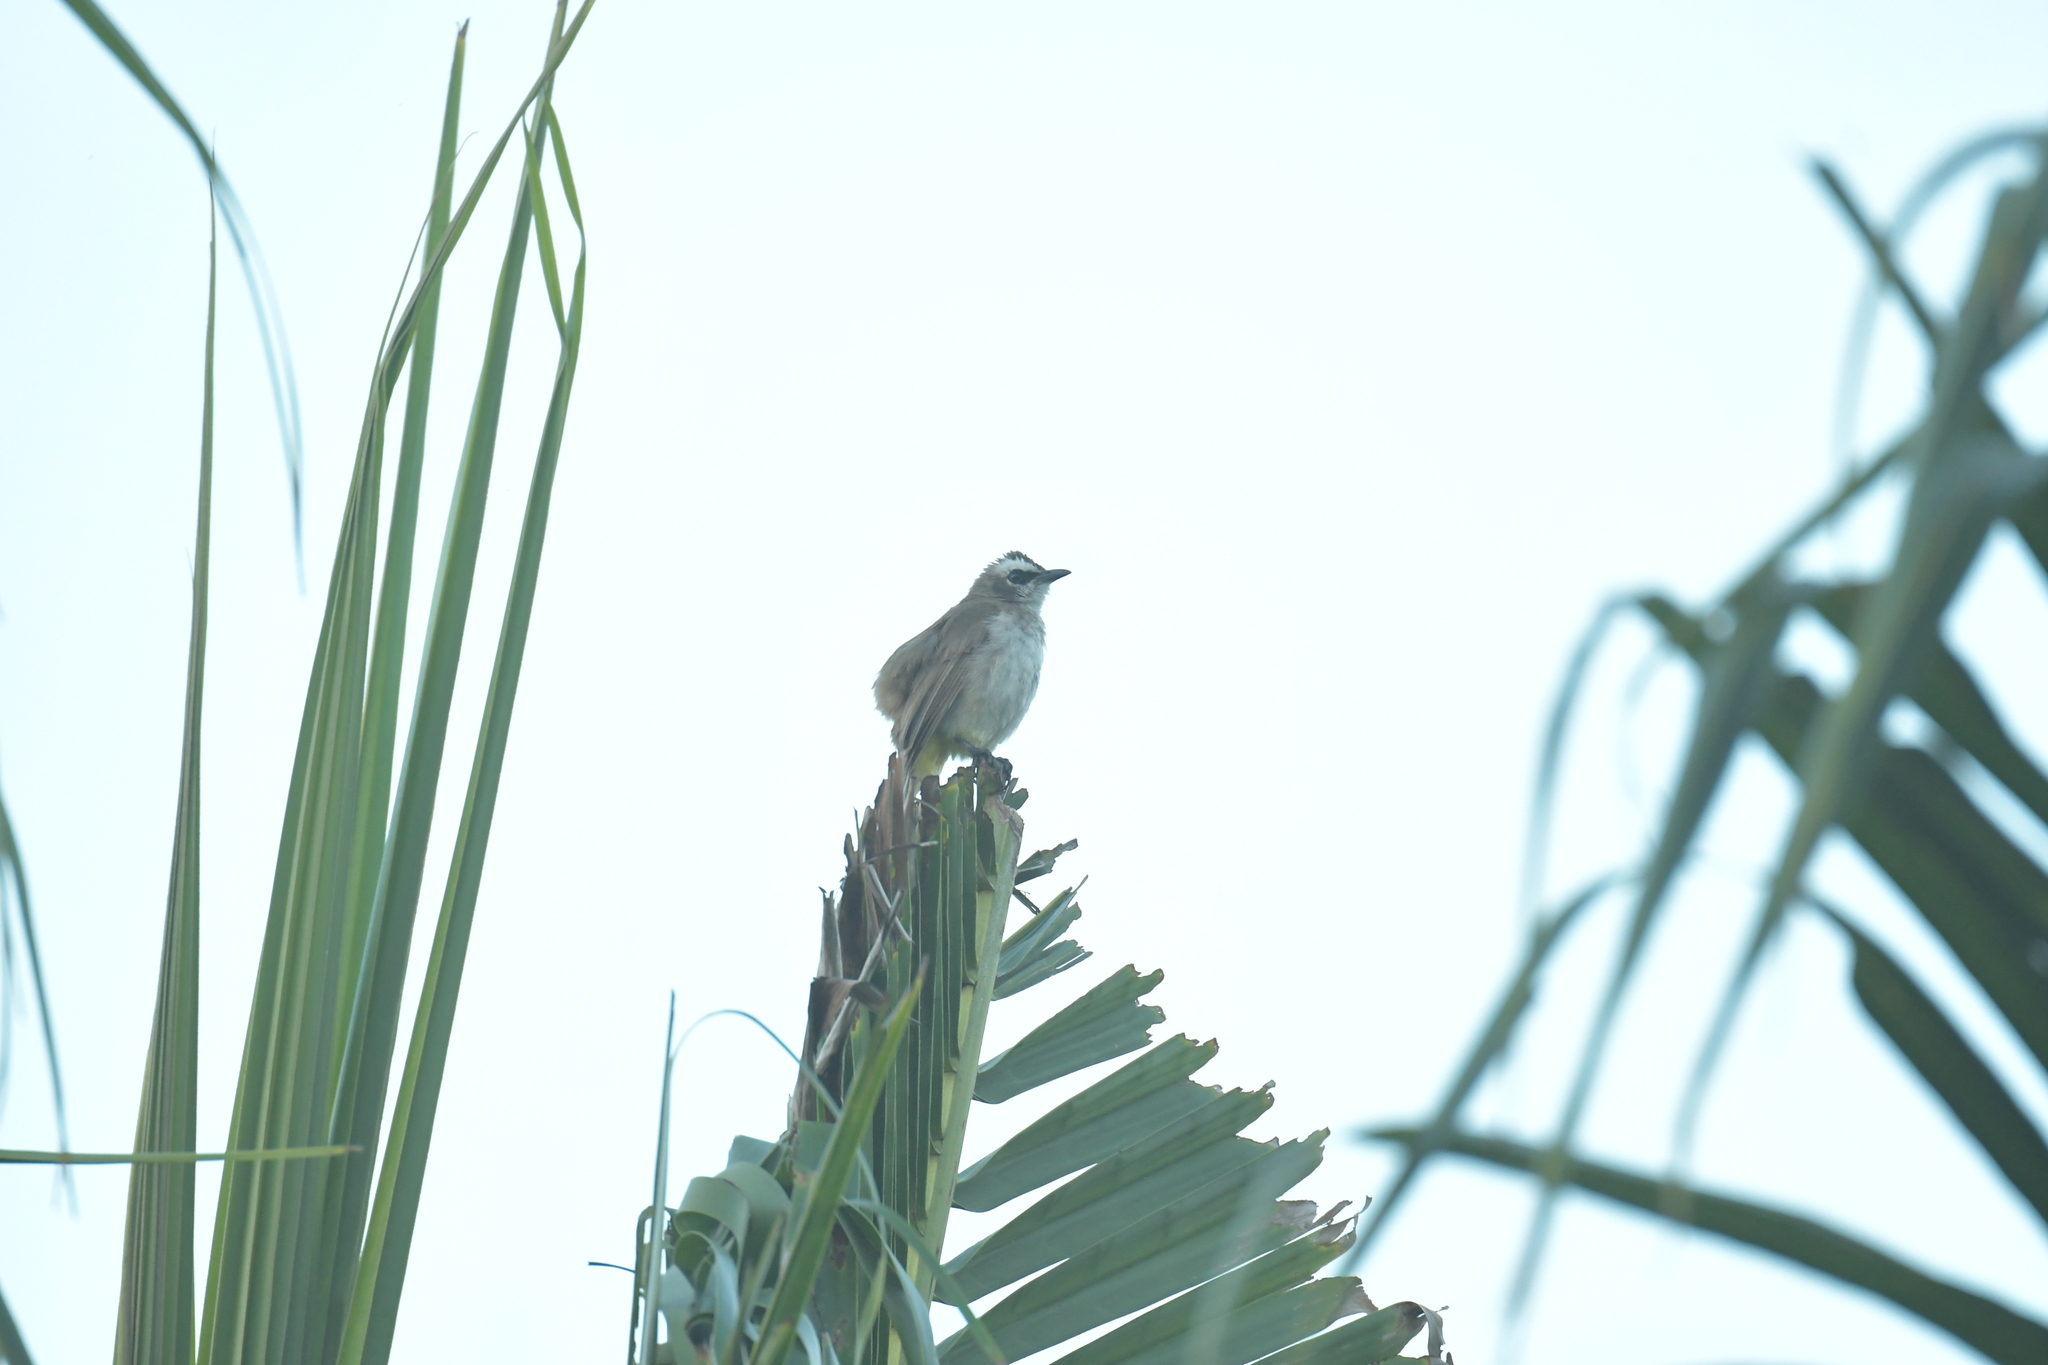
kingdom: Animalia
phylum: Chordata
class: Aves
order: Passeriformes
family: Pycnonotidae
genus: Pycnonotus
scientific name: Pycnonotus goiavier
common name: Yellow-vented bulbul
